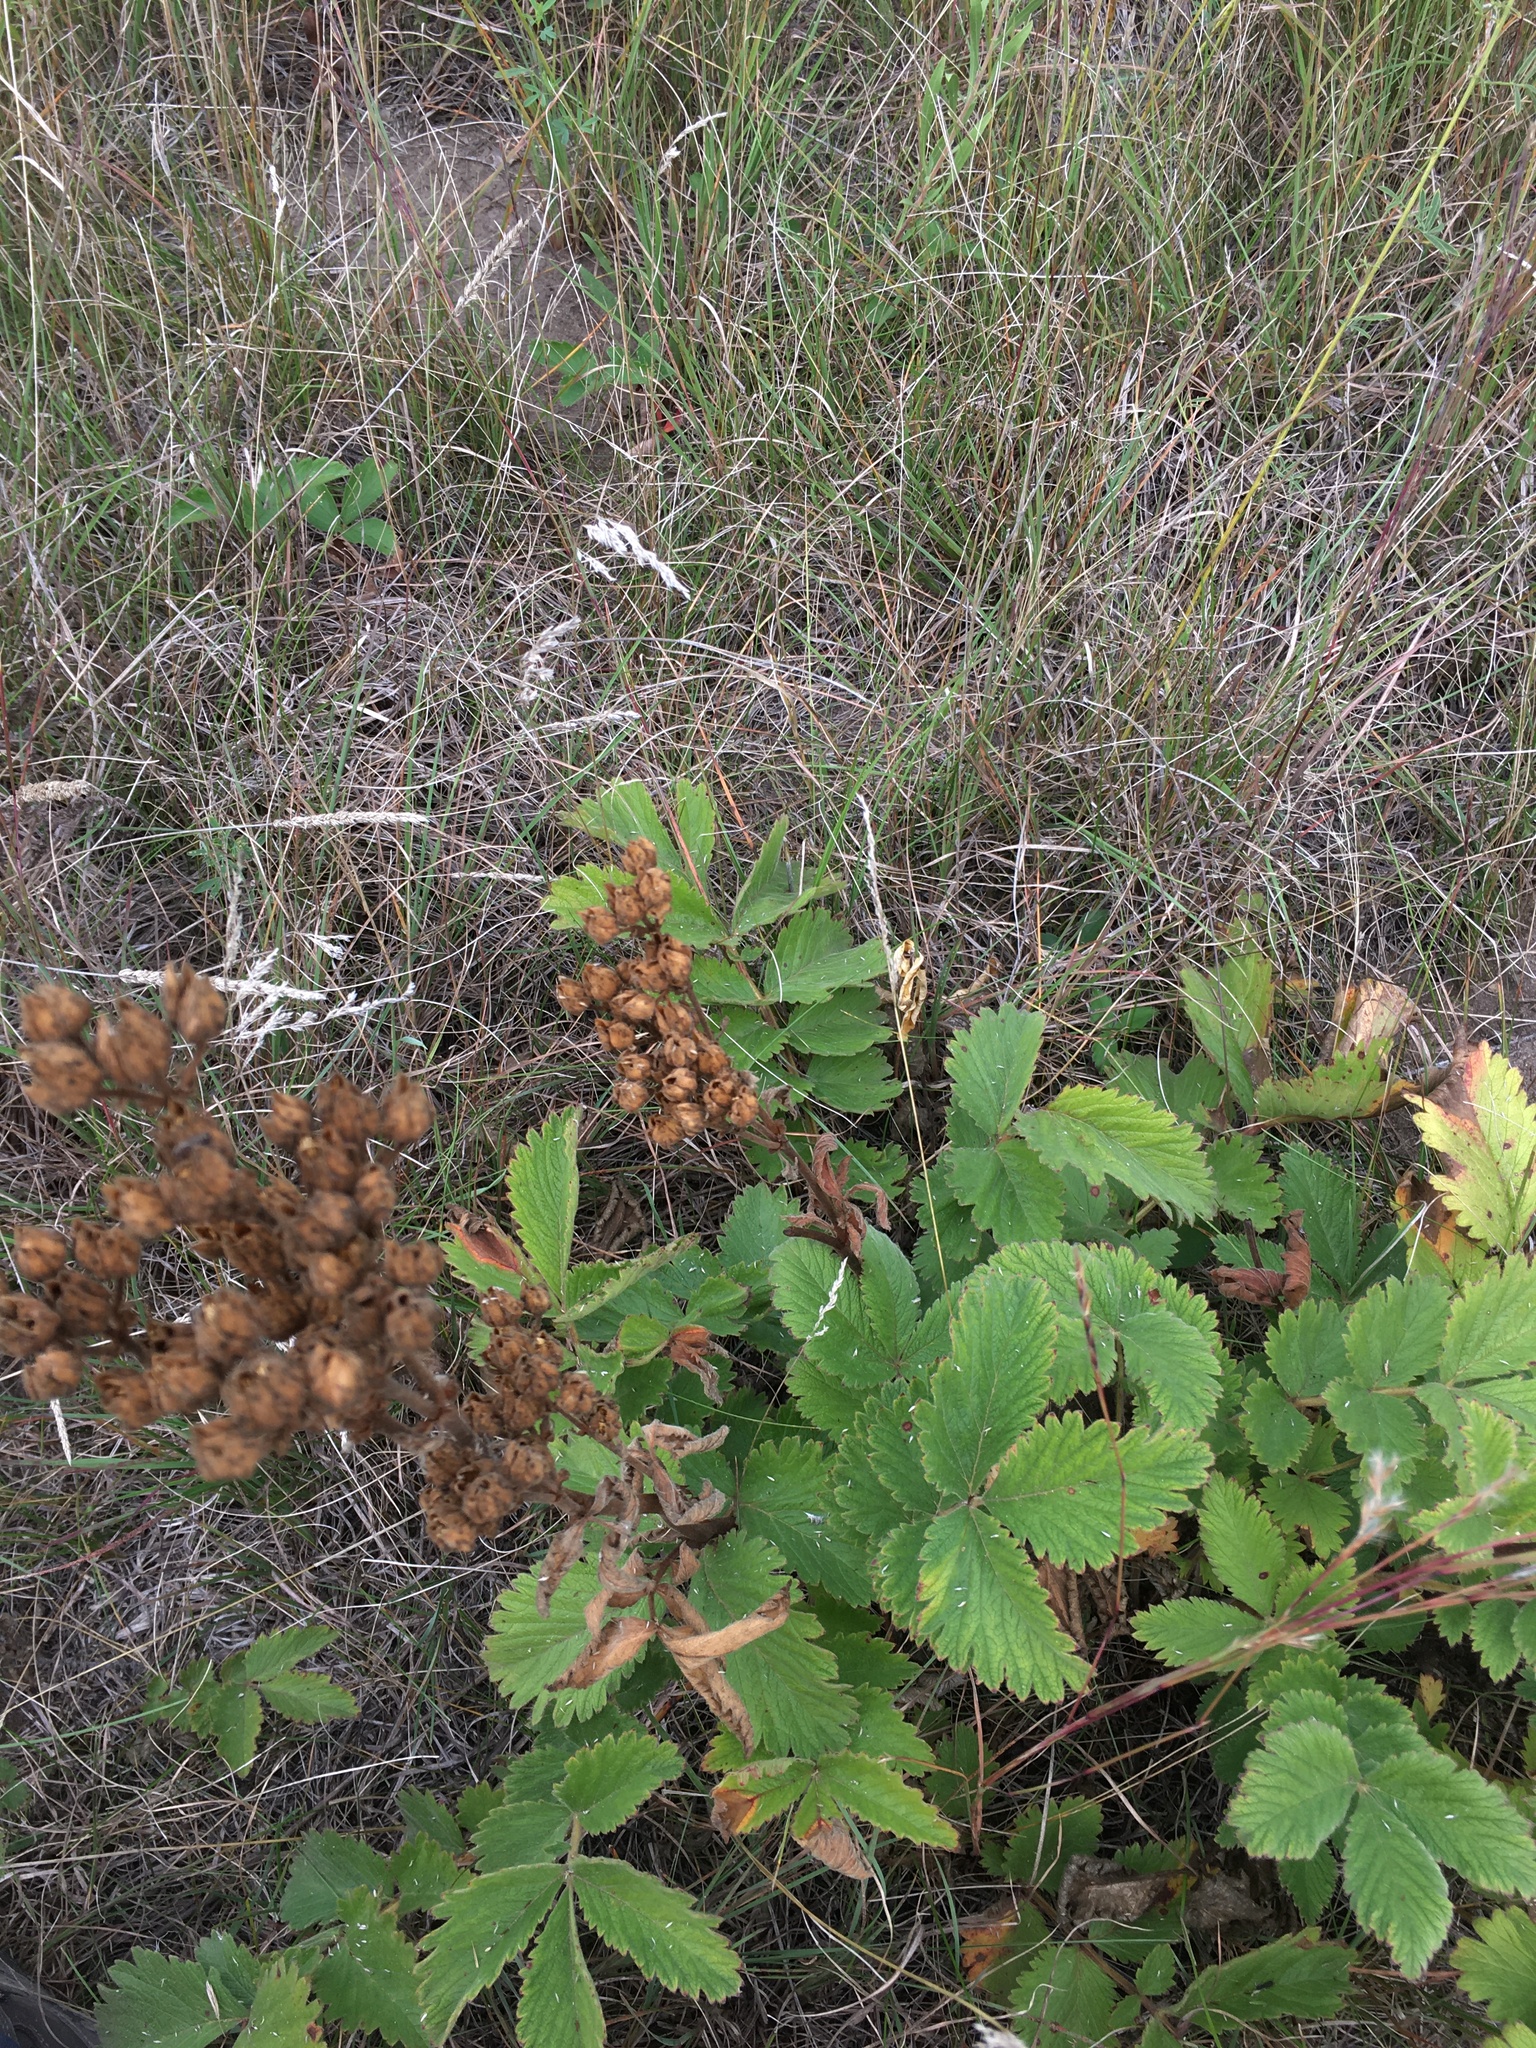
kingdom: Plantae
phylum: Tracheophyta
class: Magnoliopsida
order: Rosales
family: Rosaceae
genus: Drymocallis
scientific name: Drymocallis arguta
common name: Tall cinquefoil
